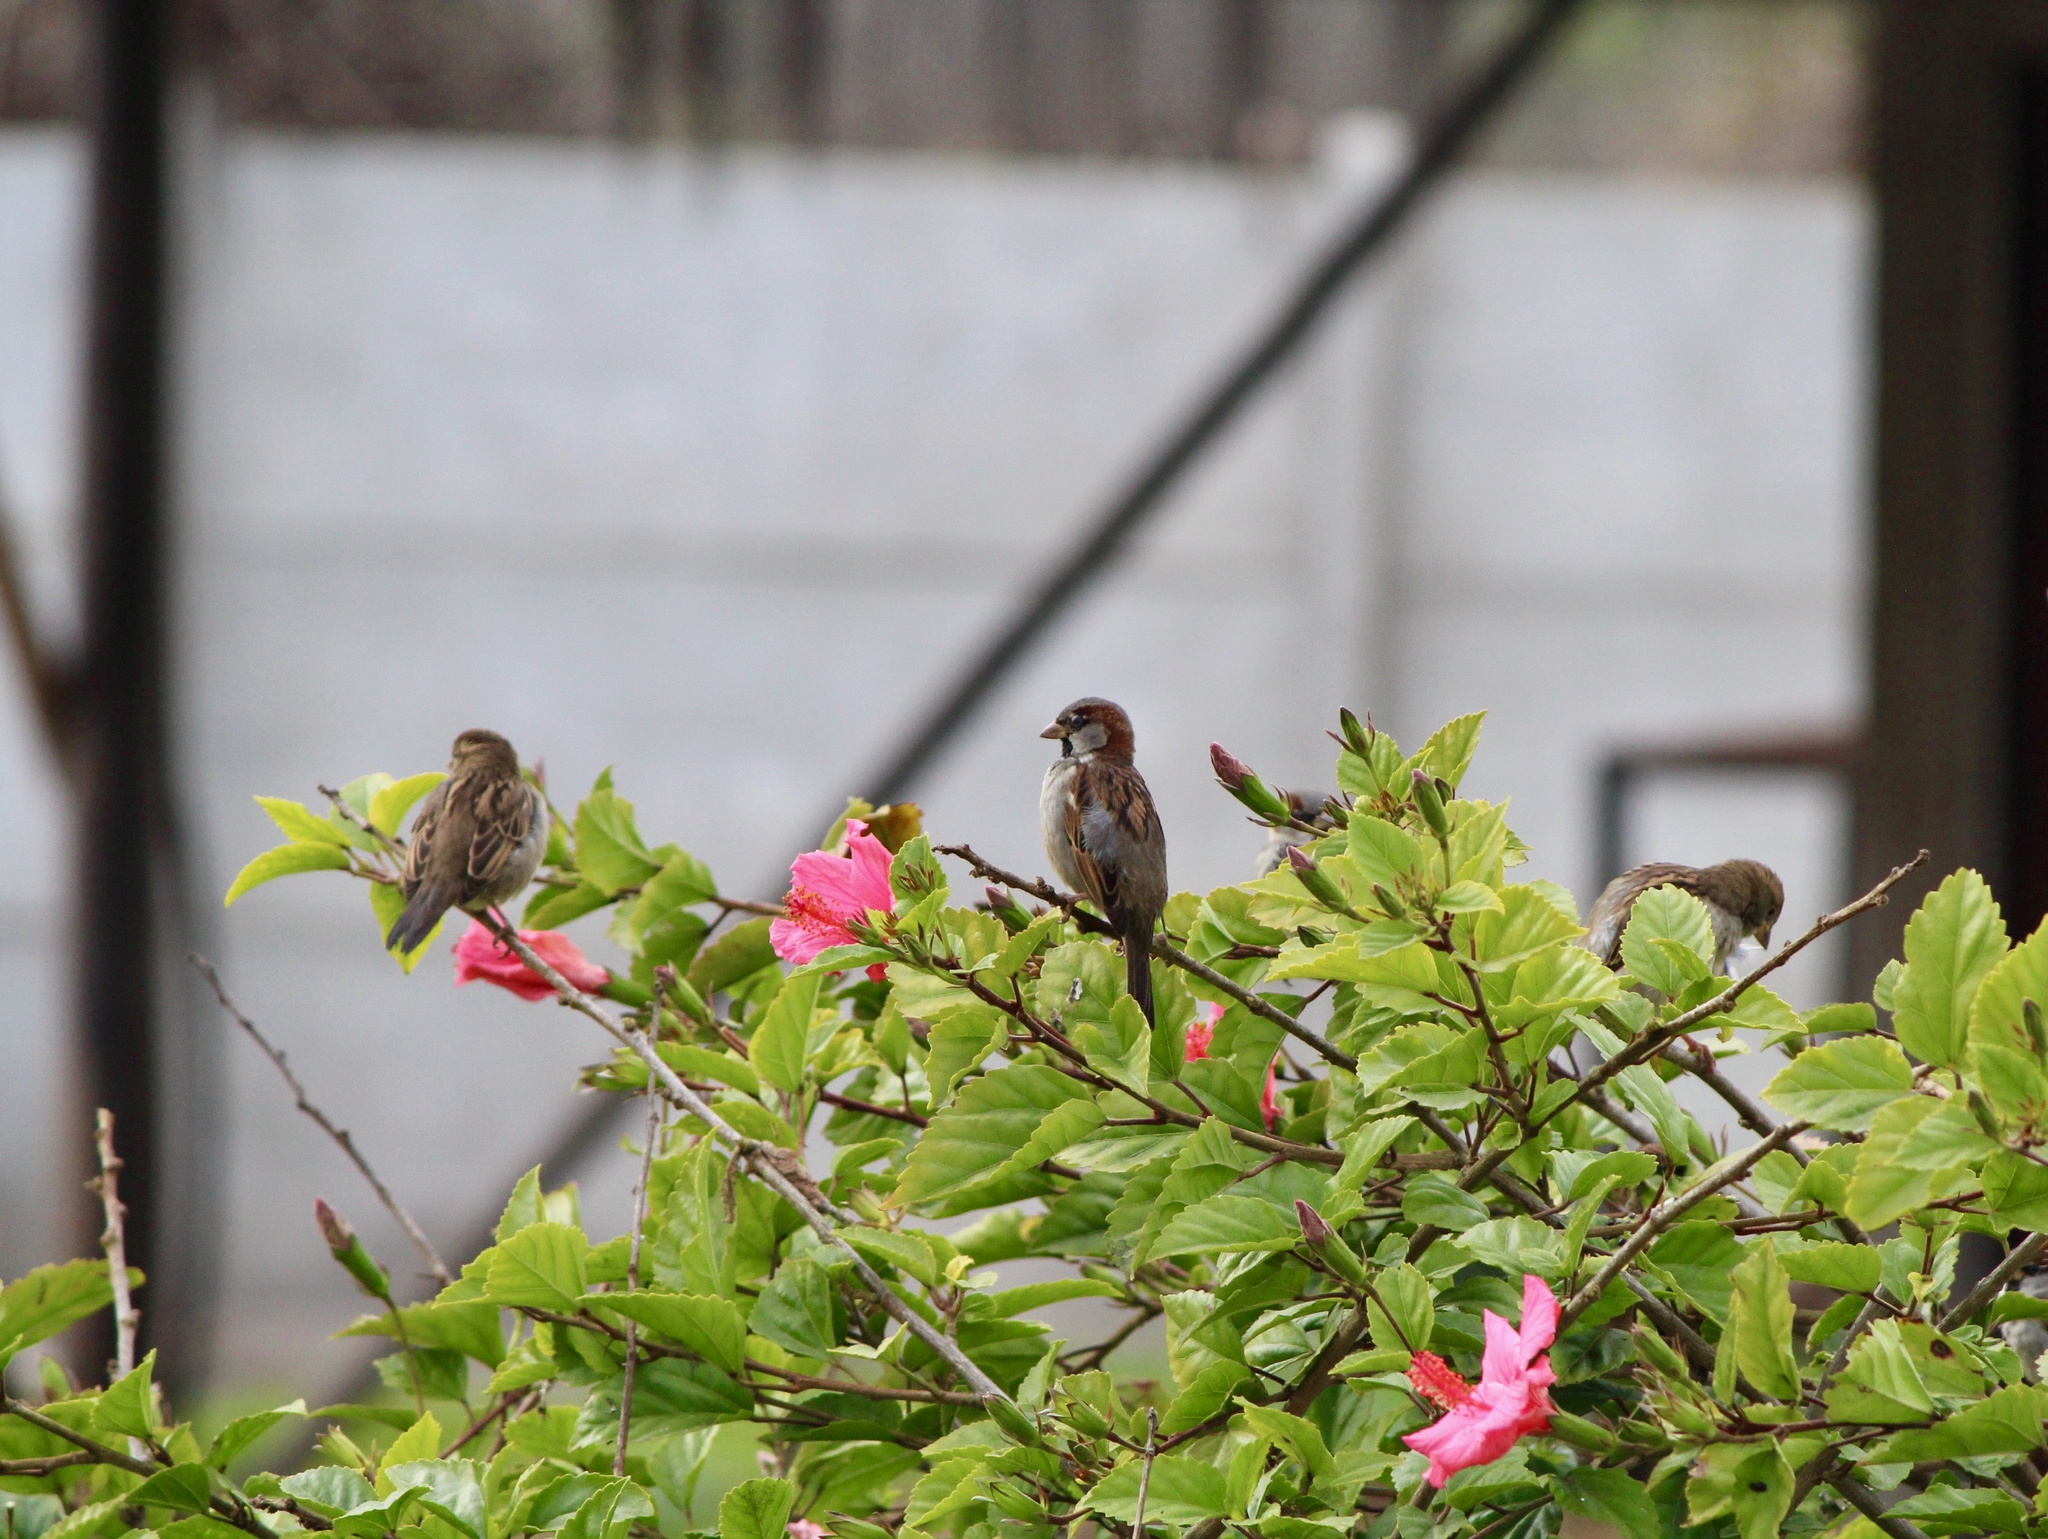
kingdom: Animalia
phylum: Chordata
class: Aves
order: Passeriformes
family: Passeridae
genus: Passer
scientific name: Passer domesticus
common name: House sparrow
